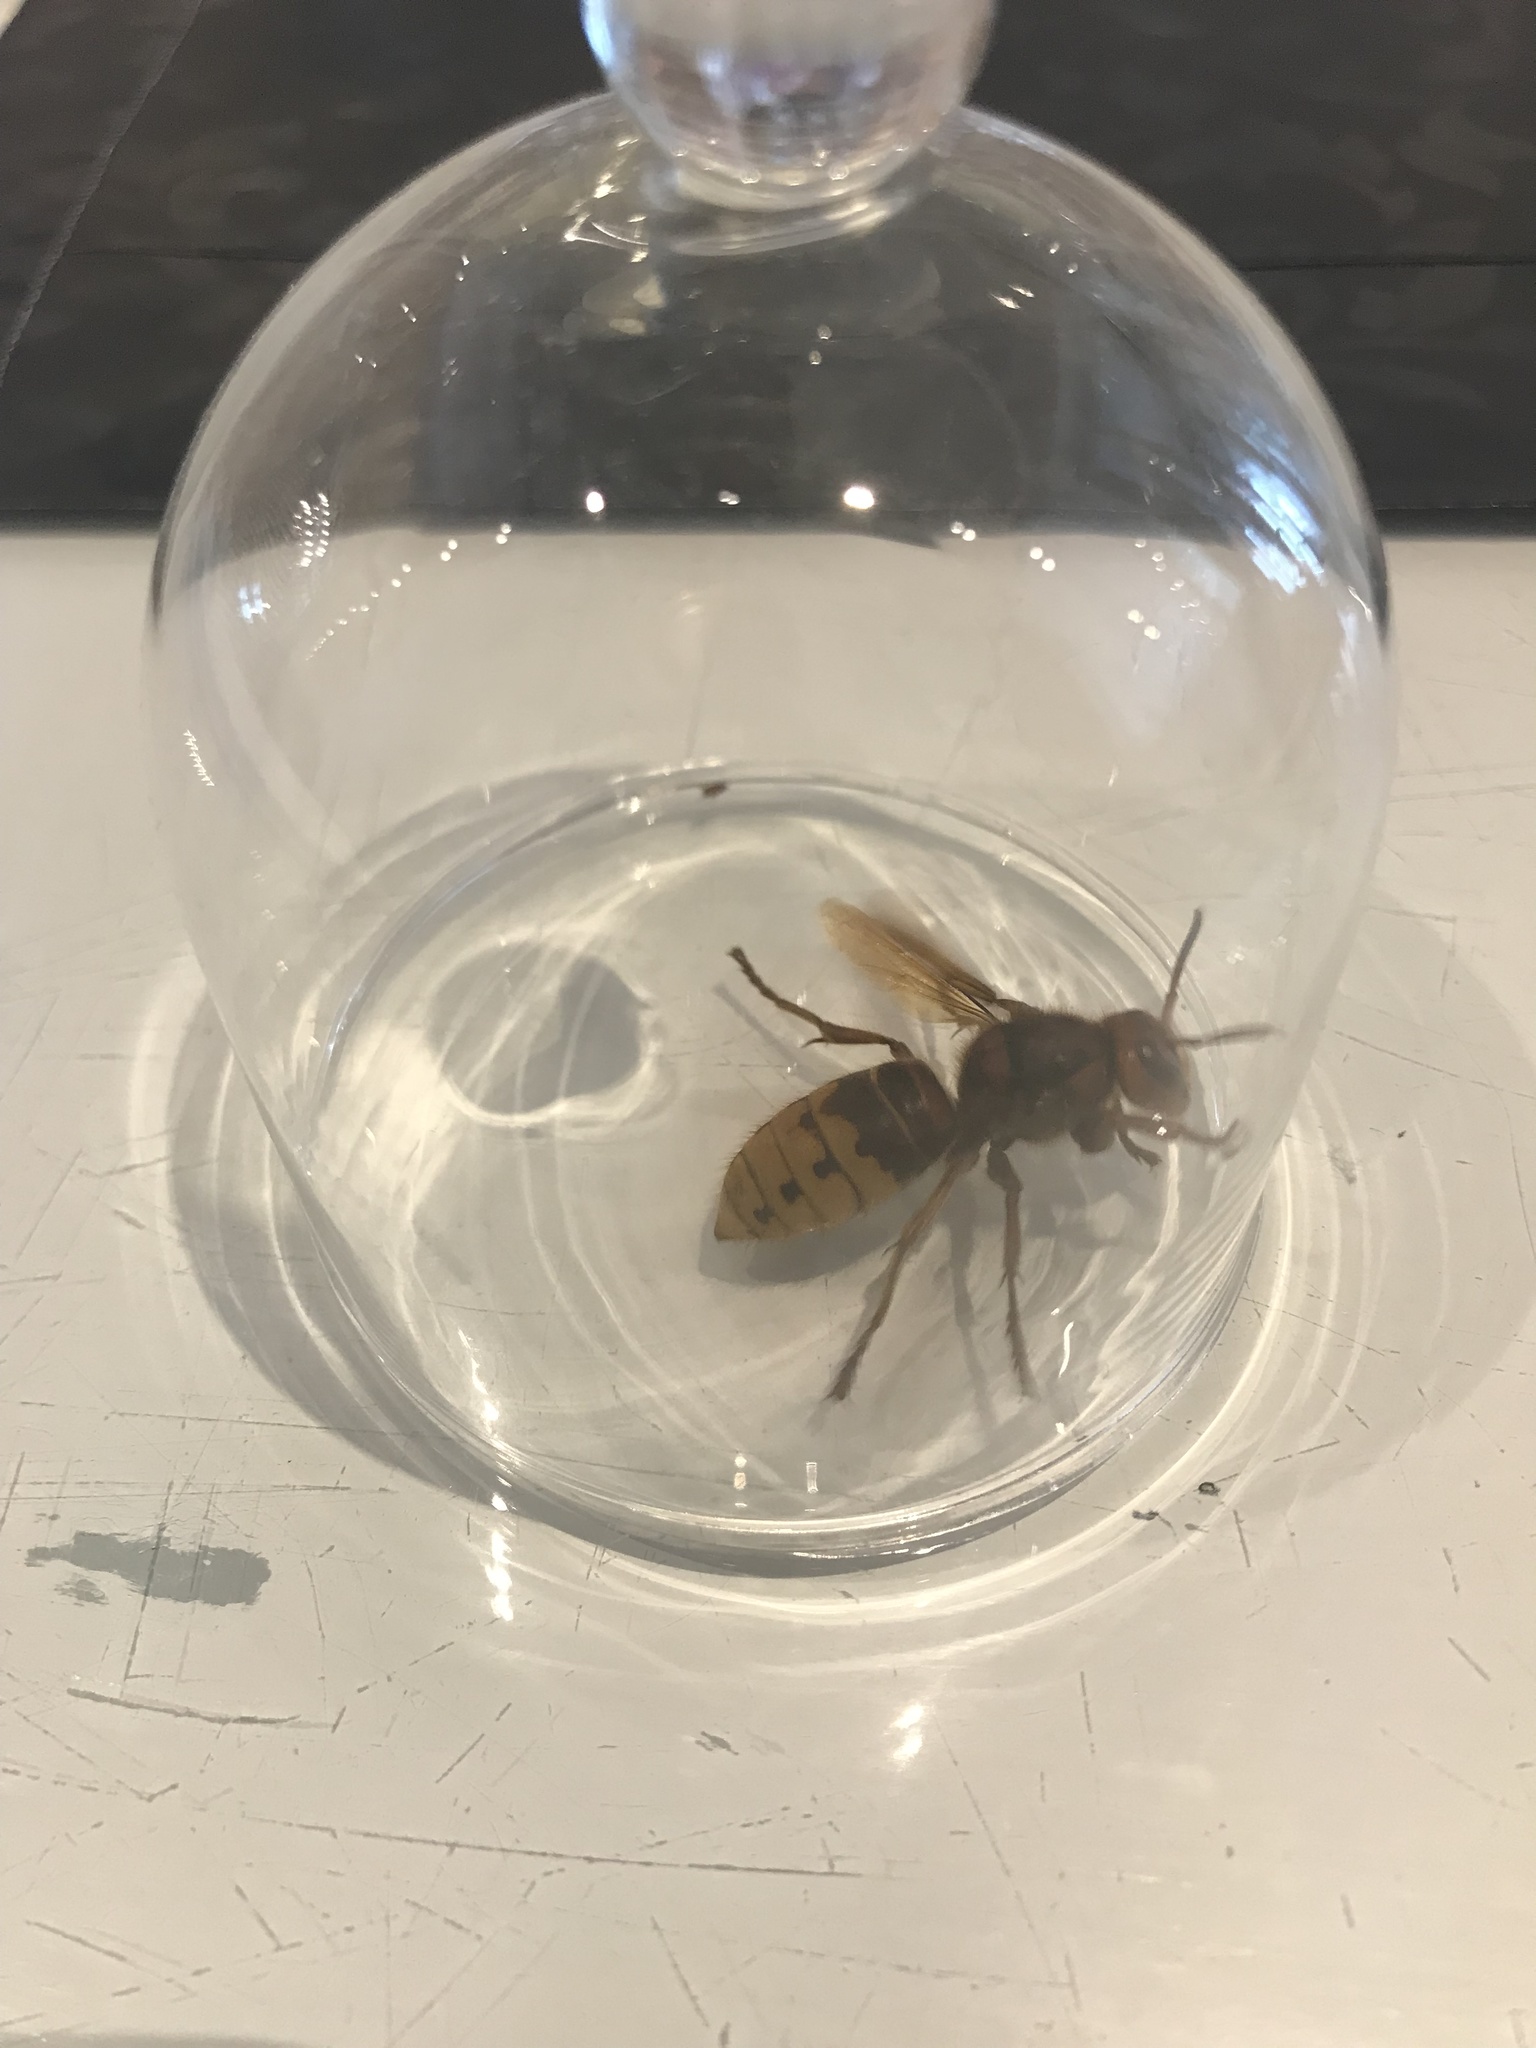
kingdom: Animalia
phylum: Arthropoda
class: Insecta
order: Hymenoptera
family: Vespidae
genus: Vespa
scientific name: Vespa crabro
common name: Hornet
